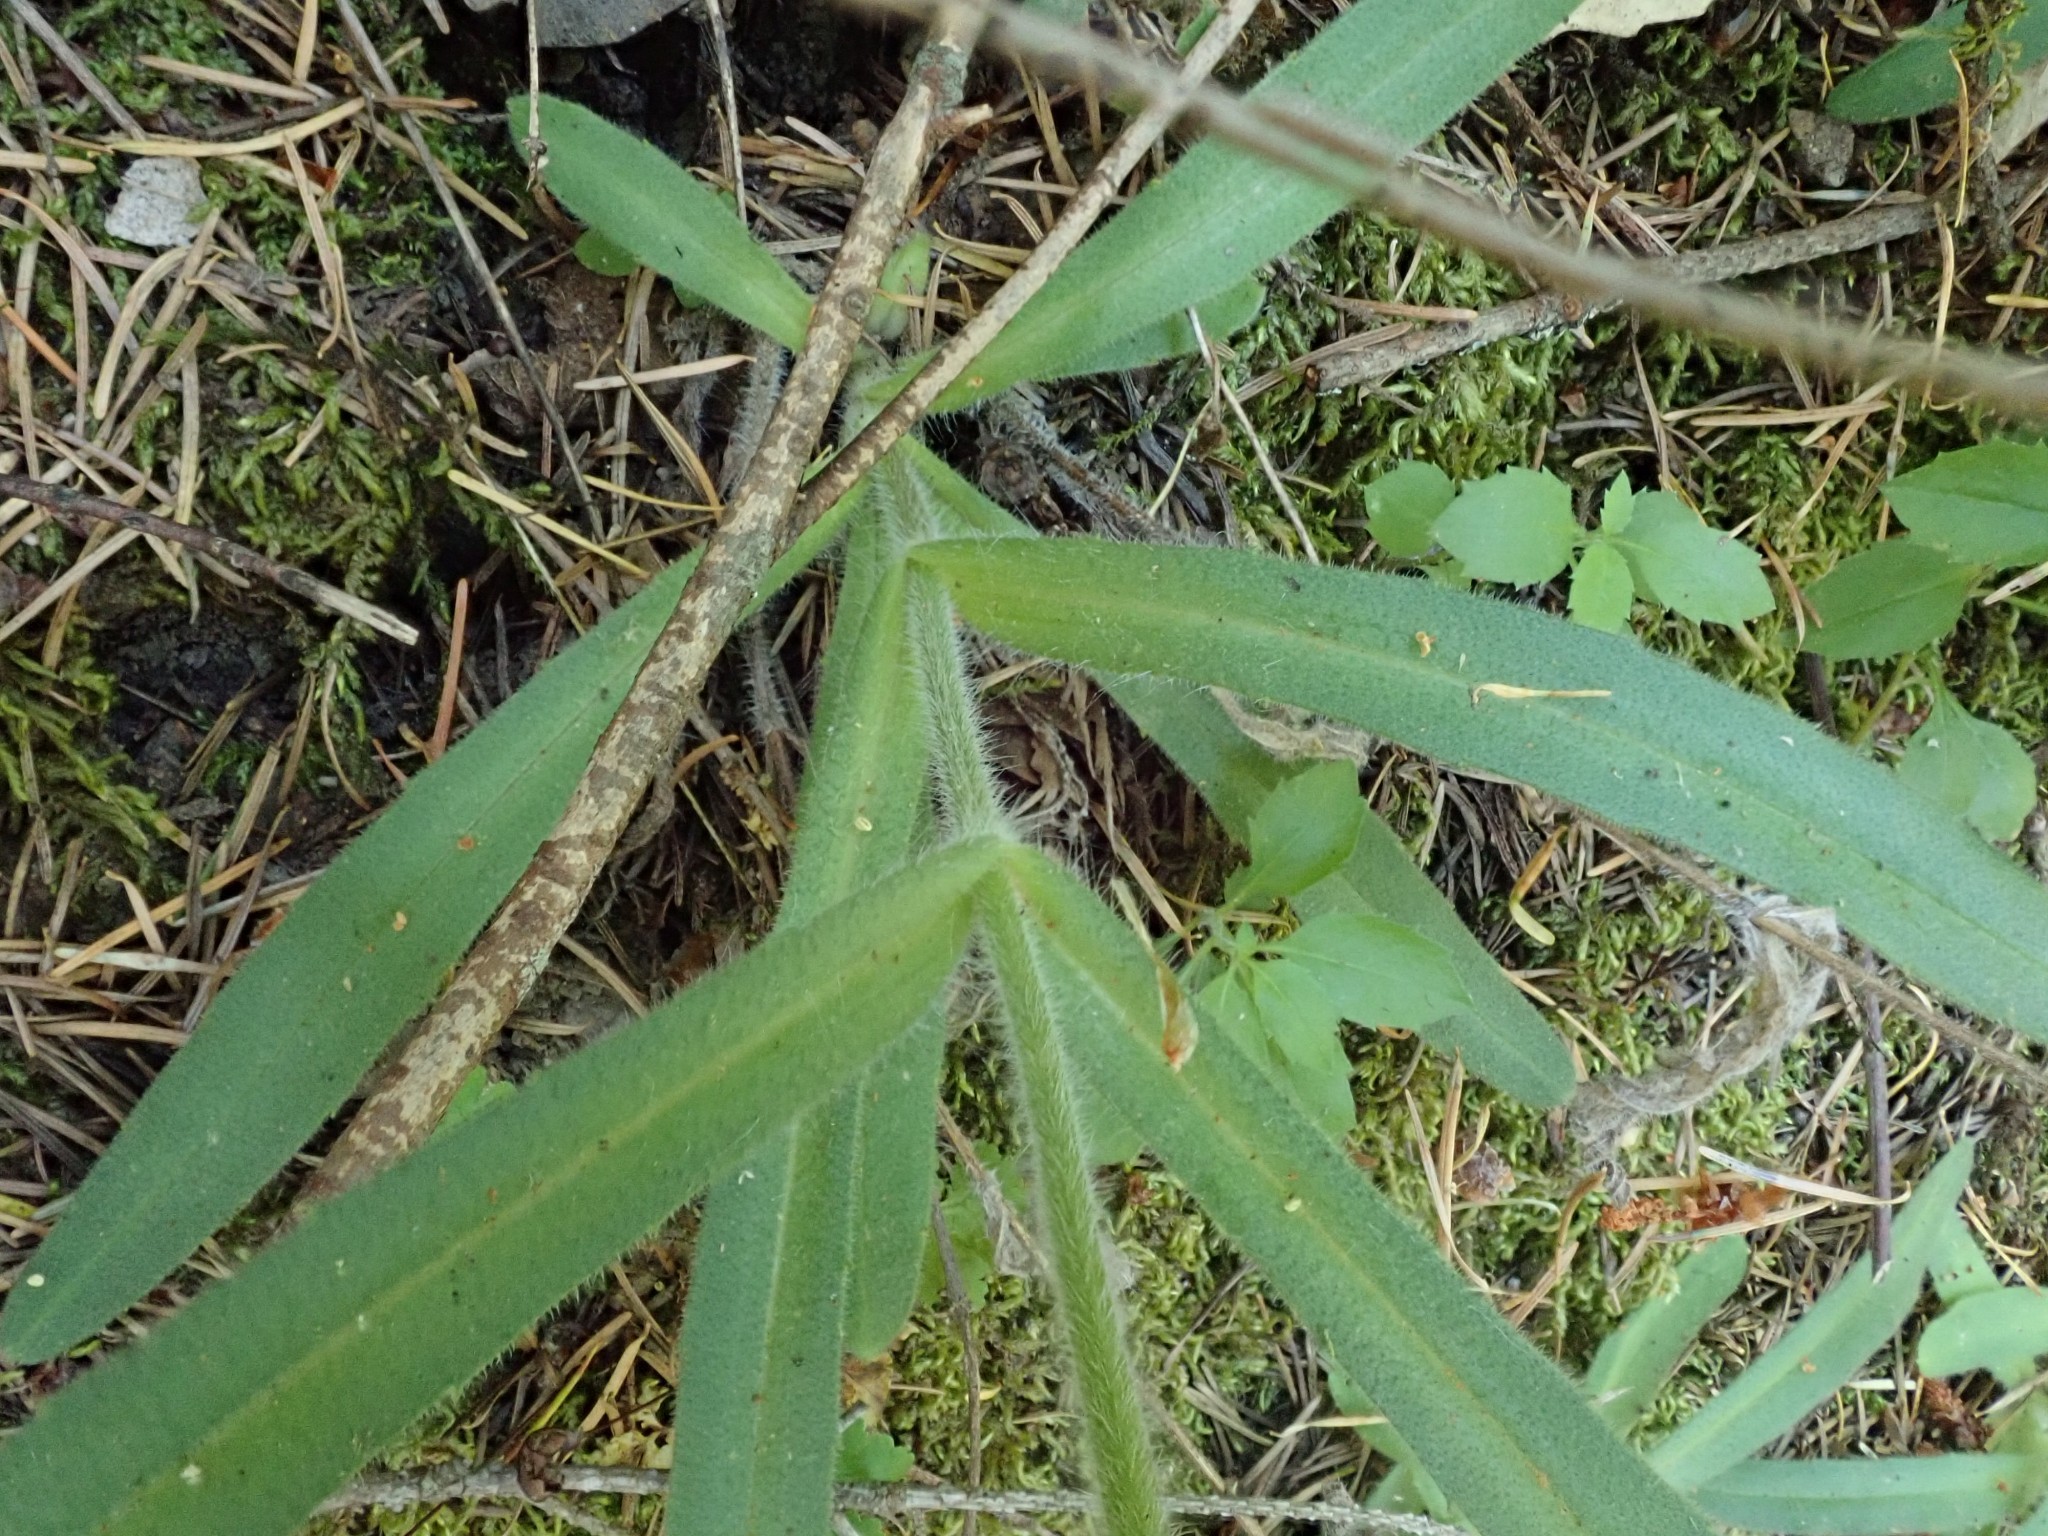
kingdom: Plantae
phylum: Tracheophyta
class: Magnoliopsida
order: Asterales
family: Asteraceae
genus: Anisocarpus
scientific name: Anisocarpus madioides
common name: Woodland madia
